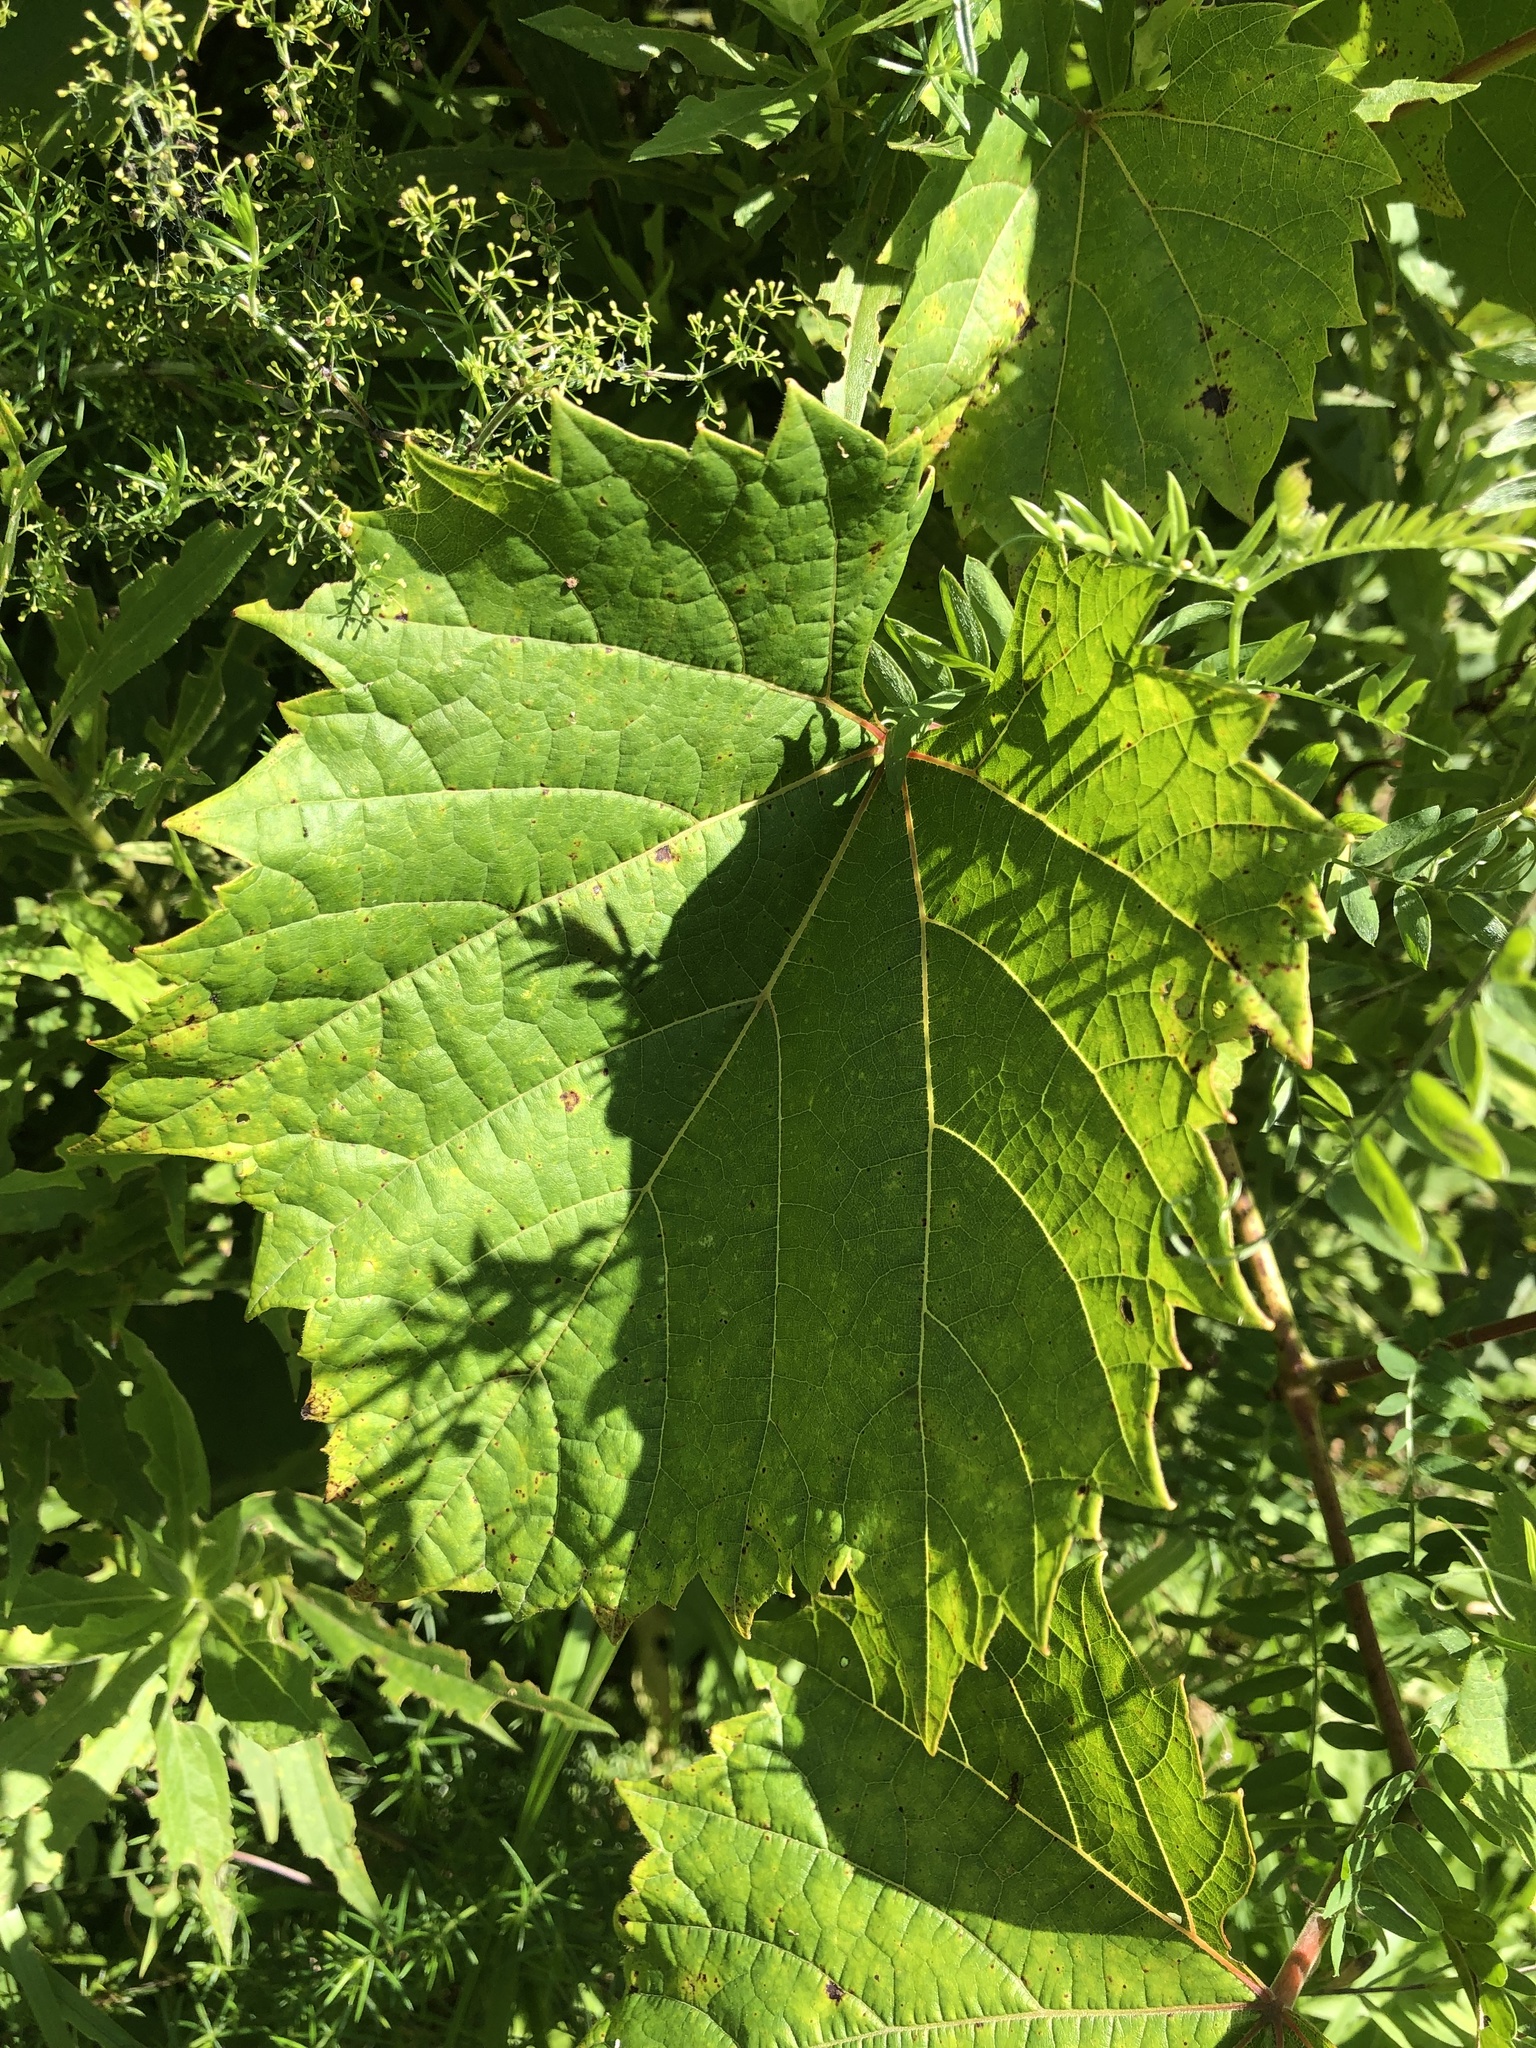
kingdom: Plantae
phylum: Tracheophyta
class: Magnoliopsida
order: Vitales
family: Vitaceae
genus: Vitis
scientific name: Vitis riparia
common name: Frost grape
